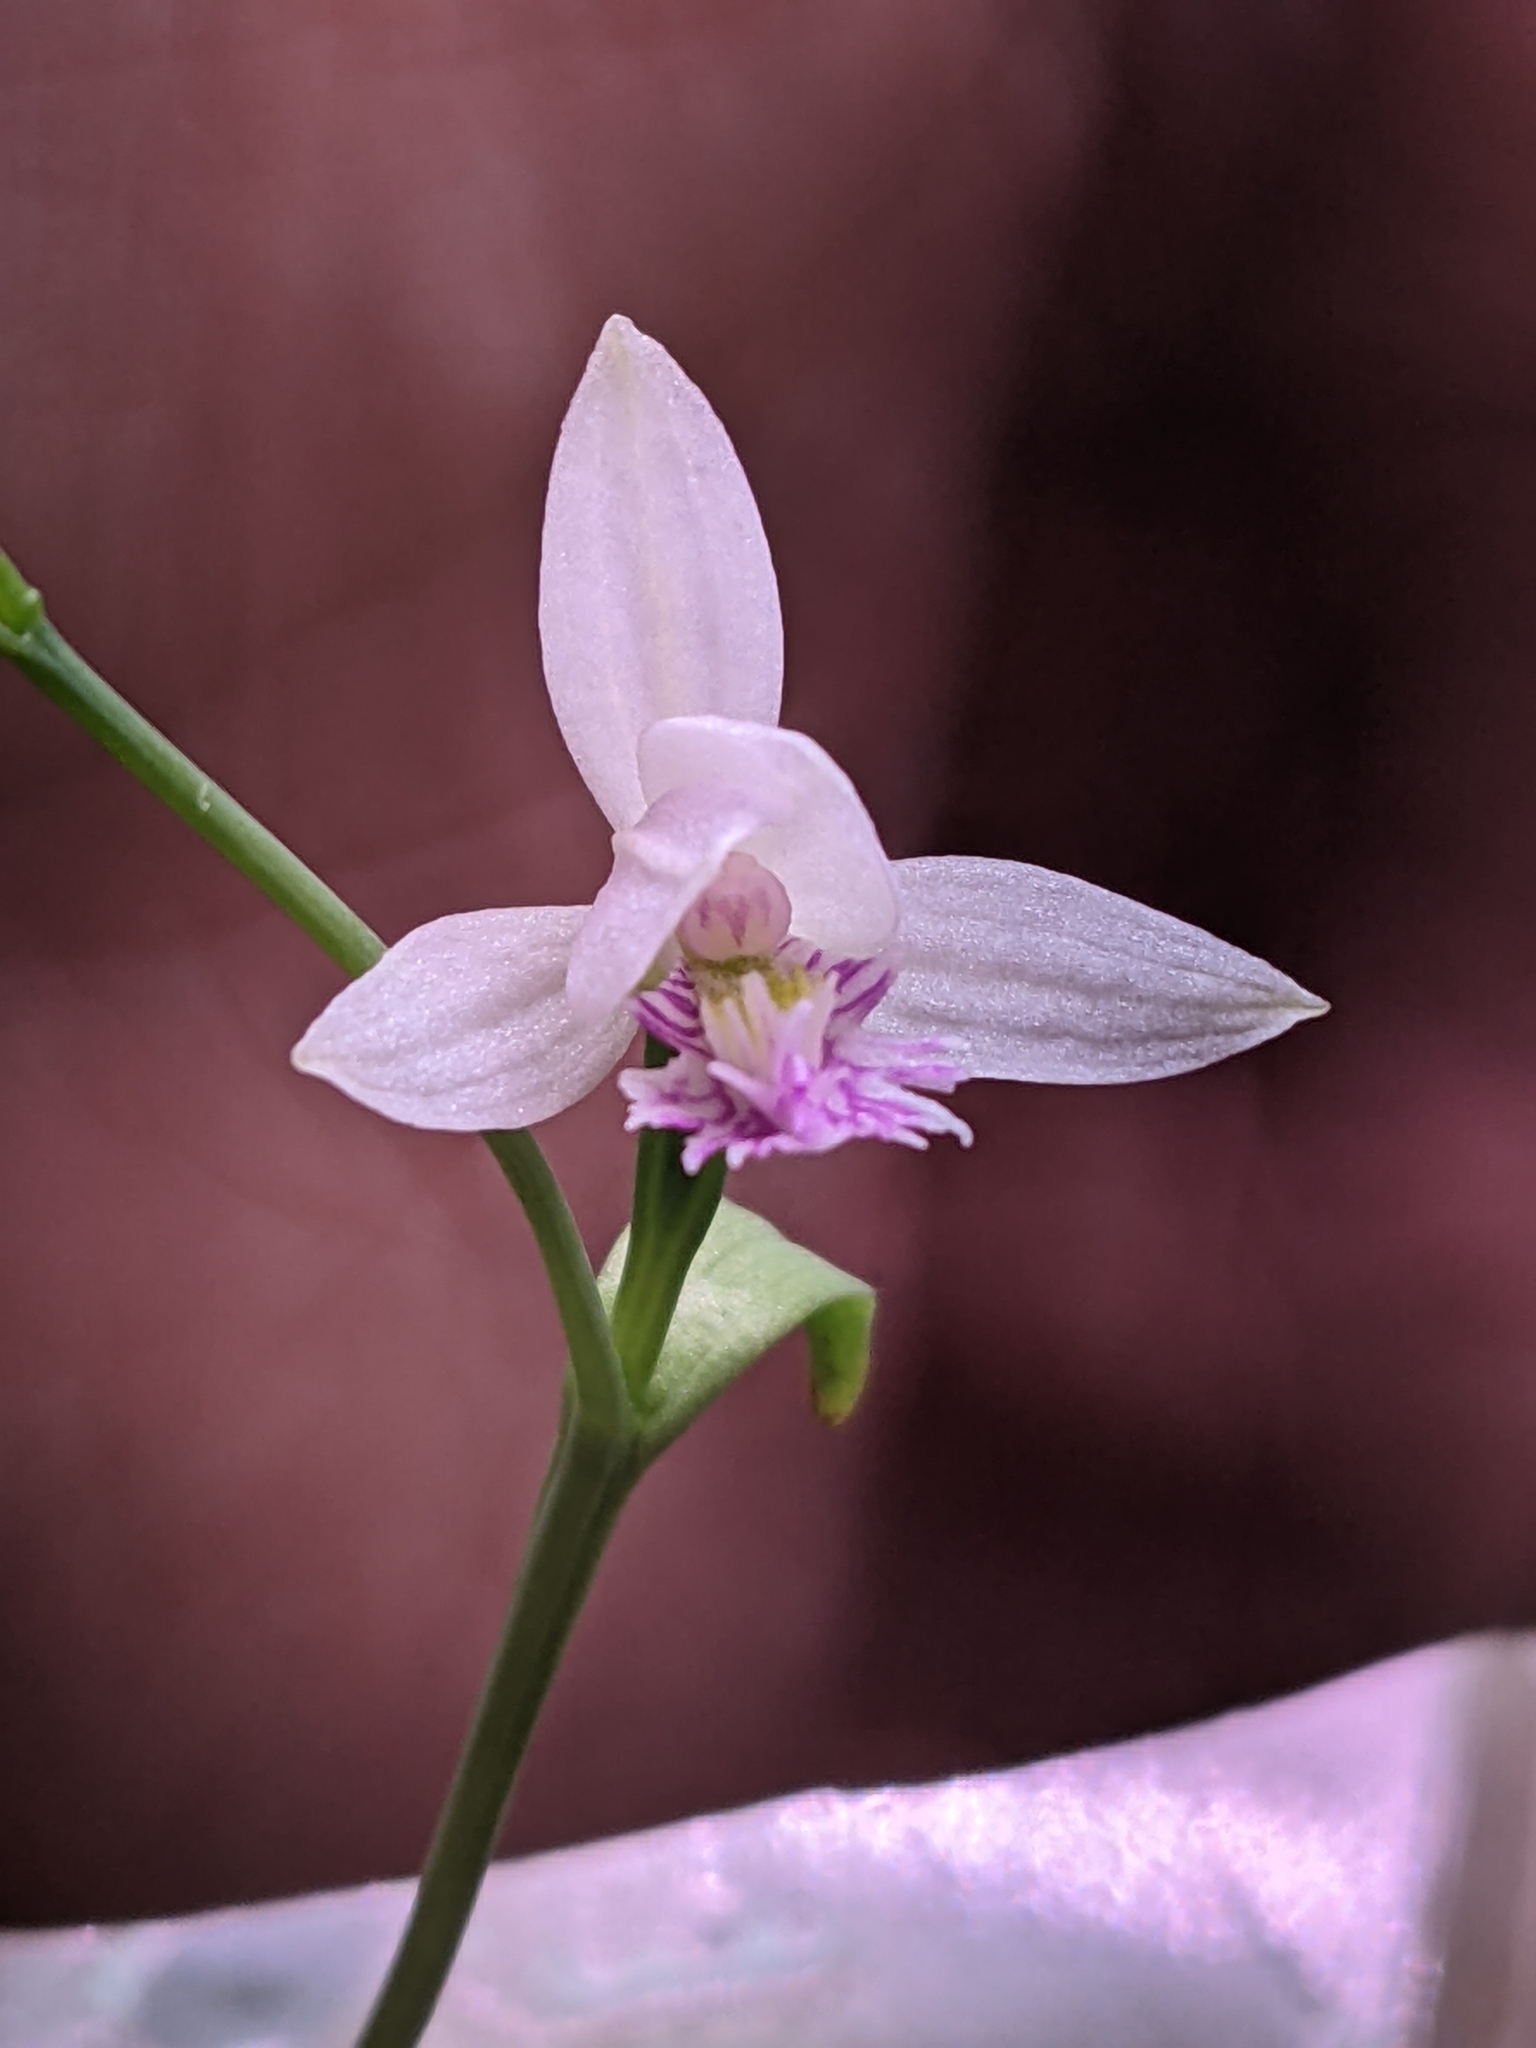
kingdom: Plantae
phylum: Tracheophyta
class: Liliopsida
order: Asparagales
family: Orchidaceae
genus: Pogonia
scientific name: Pogonia ophioglossoides
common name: Rose pogonia
